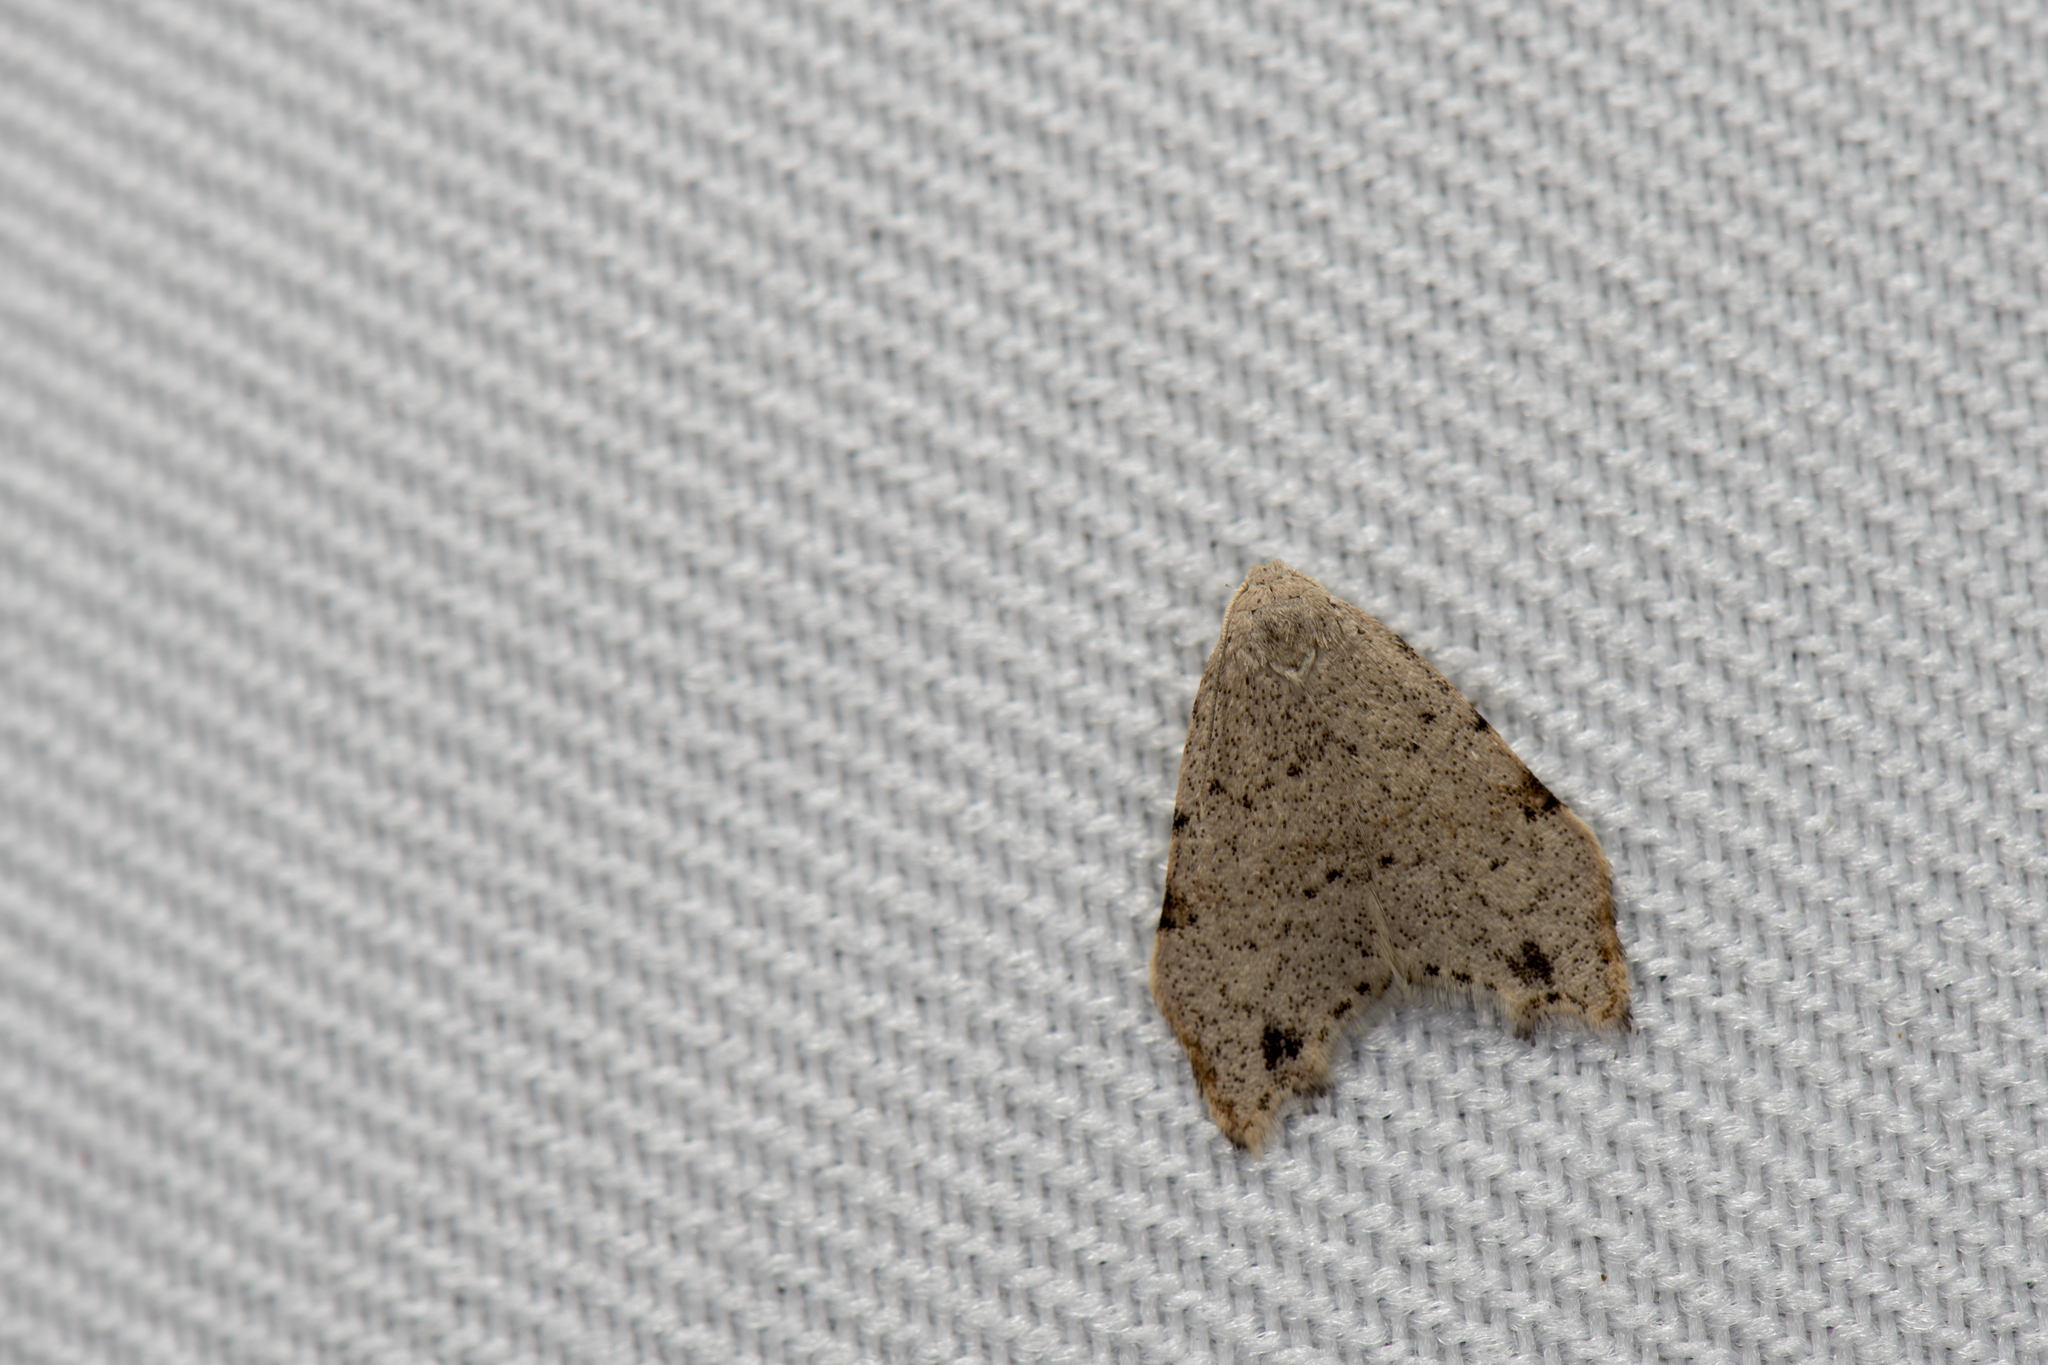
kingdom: Animalia
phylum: Arthropoda
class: Insecta
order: Lepidoptera
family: Erebidae
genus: Oxacme
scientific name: Oxacme cretacea
